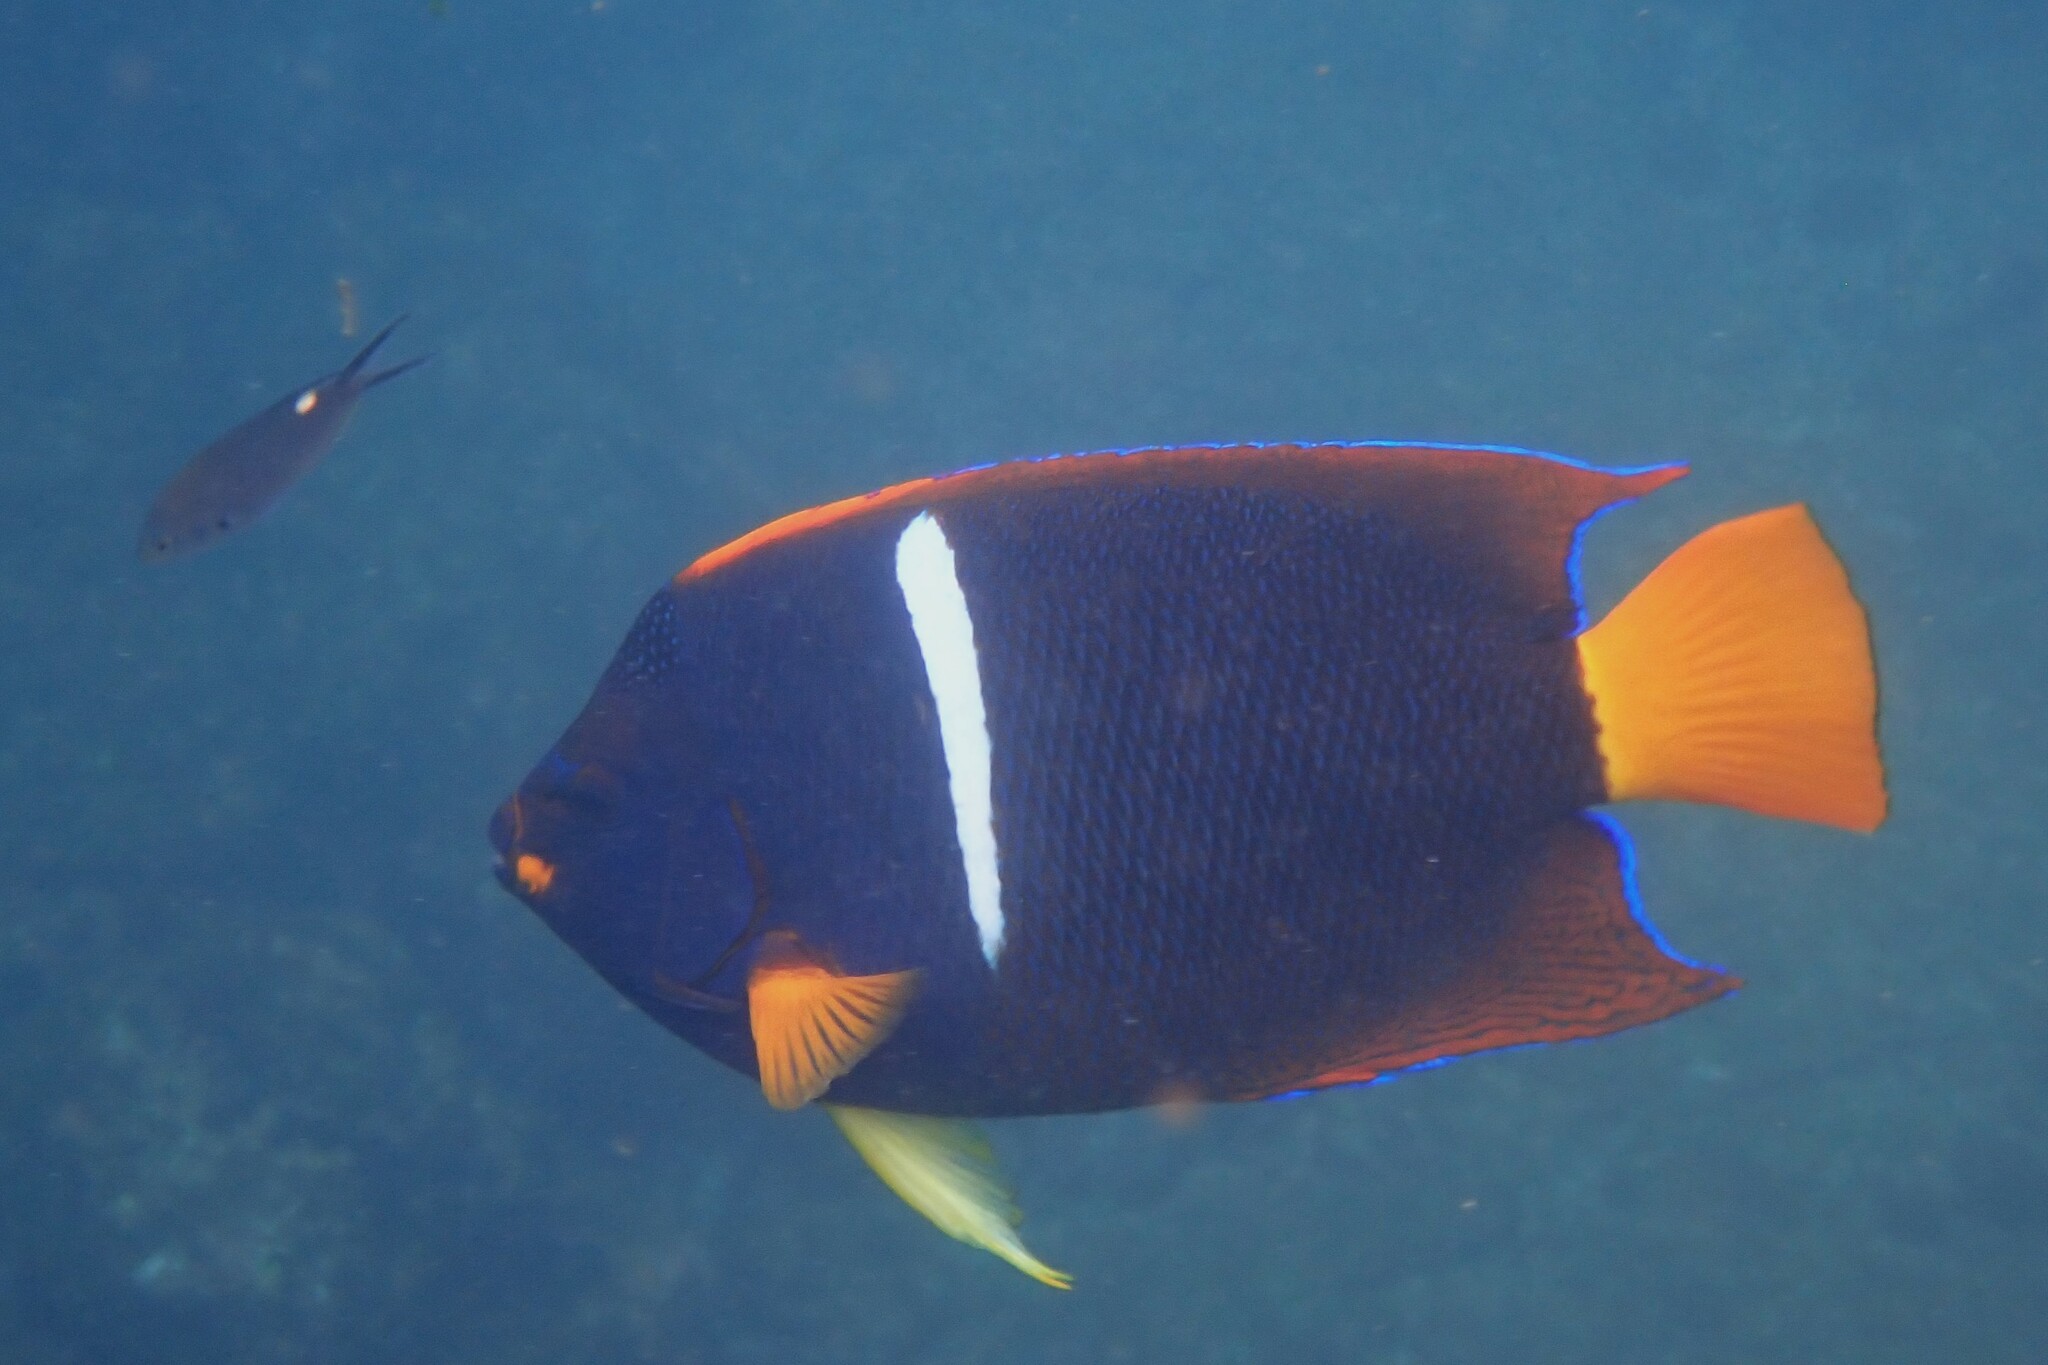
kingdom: Animalia
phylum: Chordata
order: Perciformes
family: Pomacanthidae
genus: Holacanthus
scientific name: Holacanthus passer
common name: King angelfish
